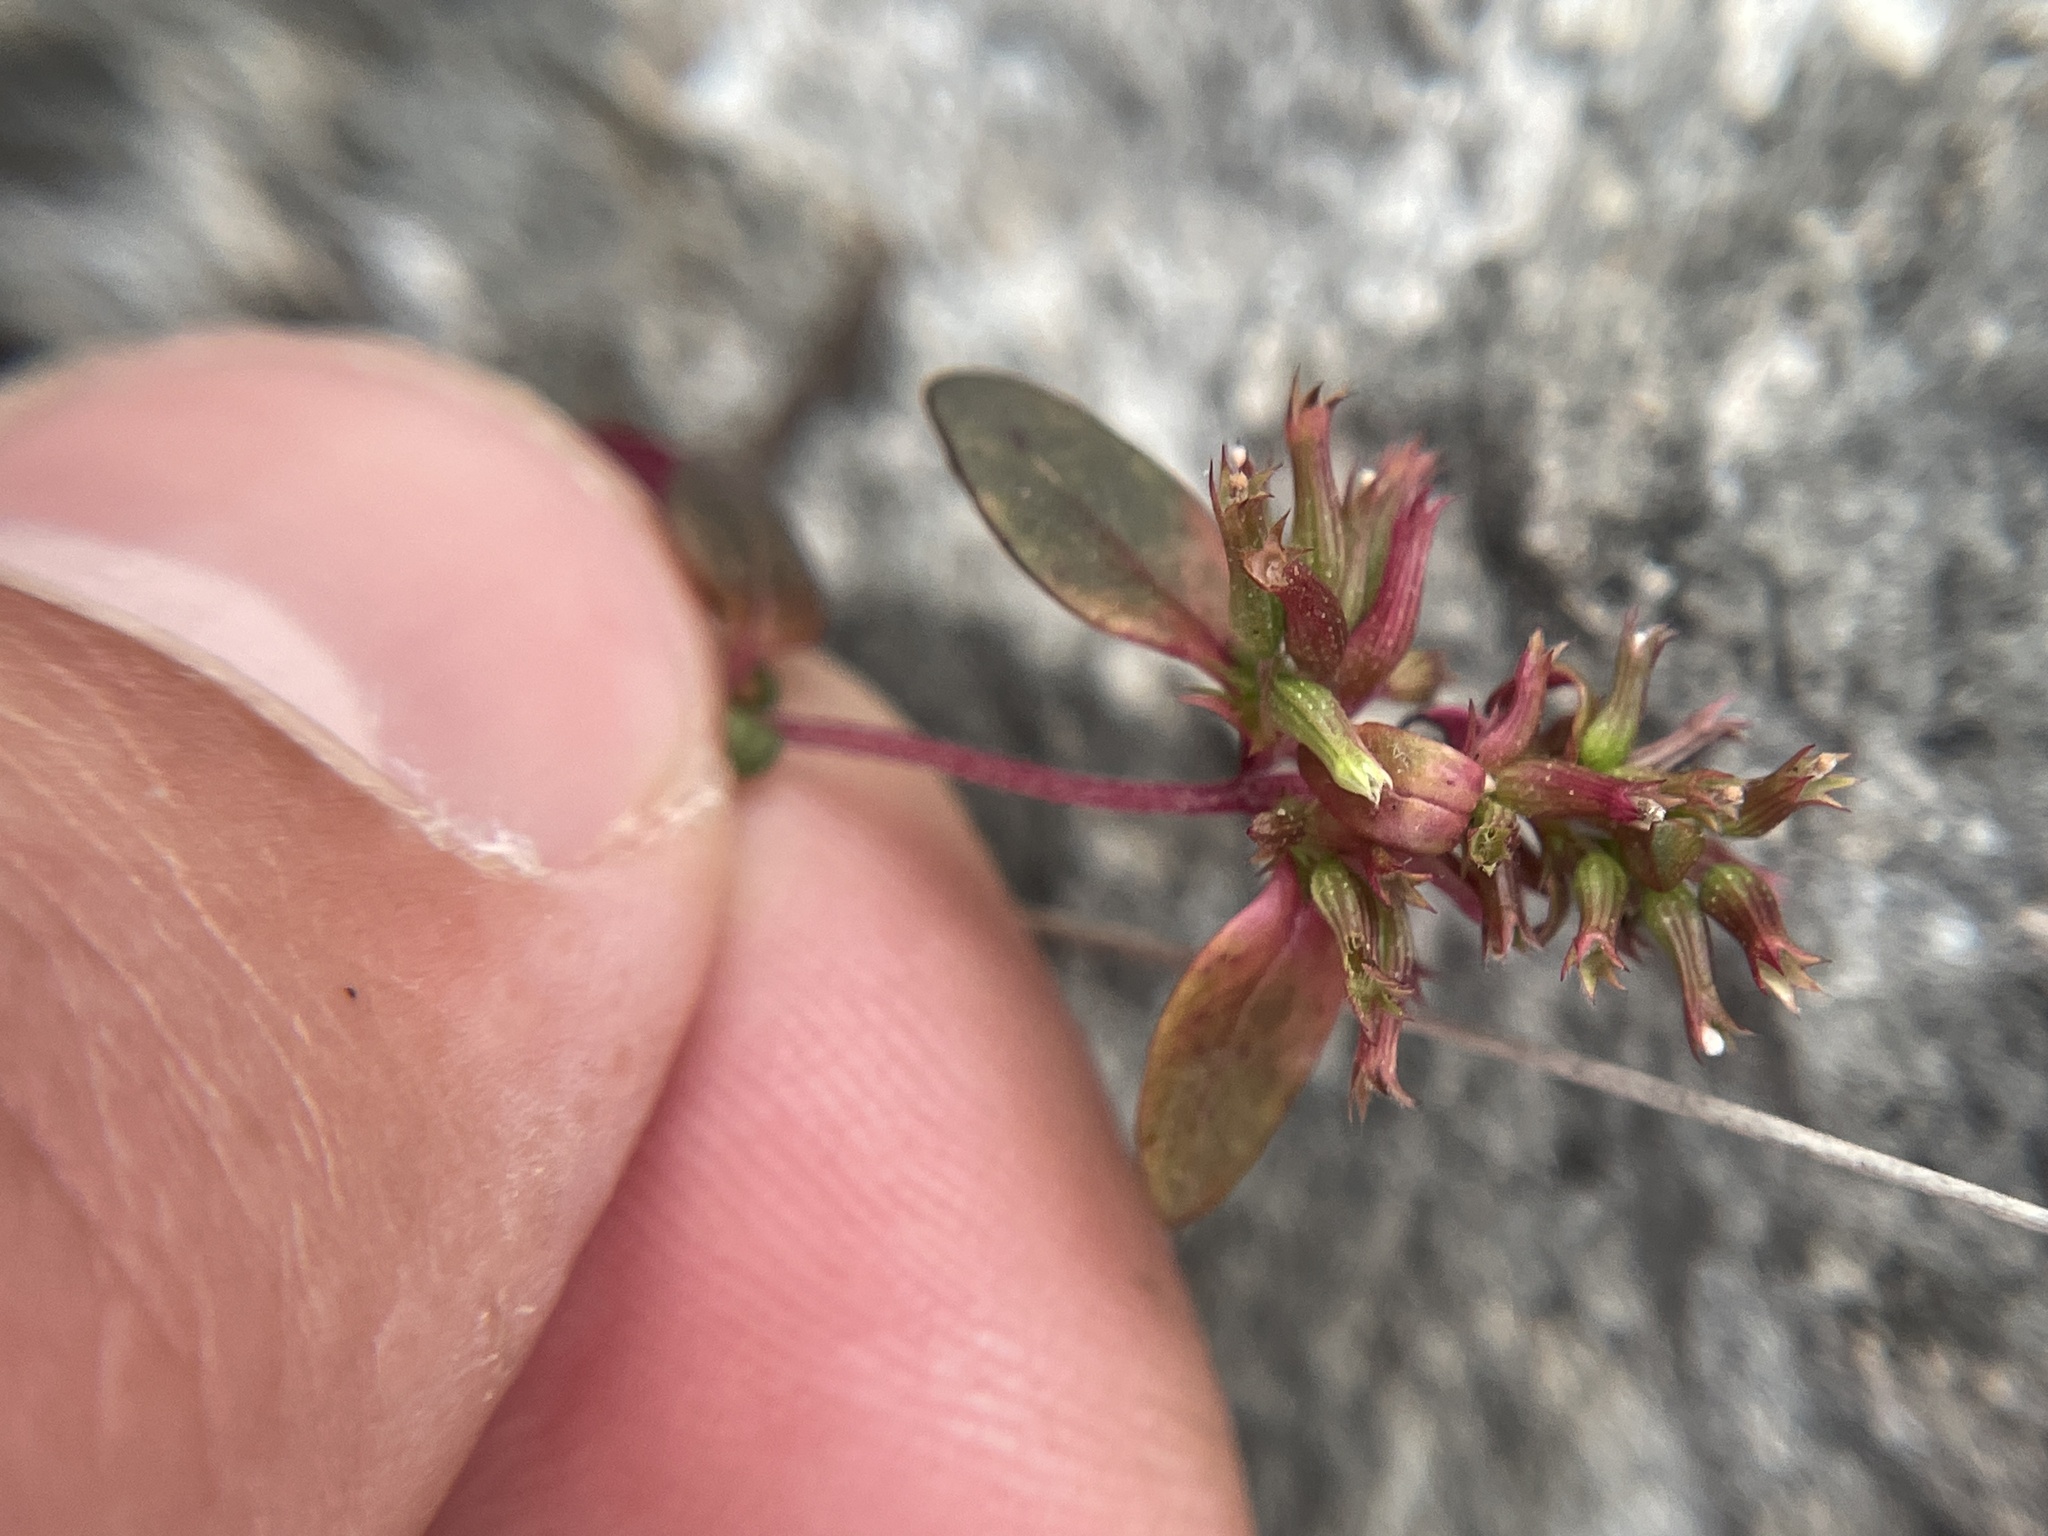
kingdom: Plantae
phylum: Tracheophyta
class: Magnoliopsida
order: Lamiales
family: Lamiaceae
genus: Hedeoma
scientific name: Hedeoma acinoides
